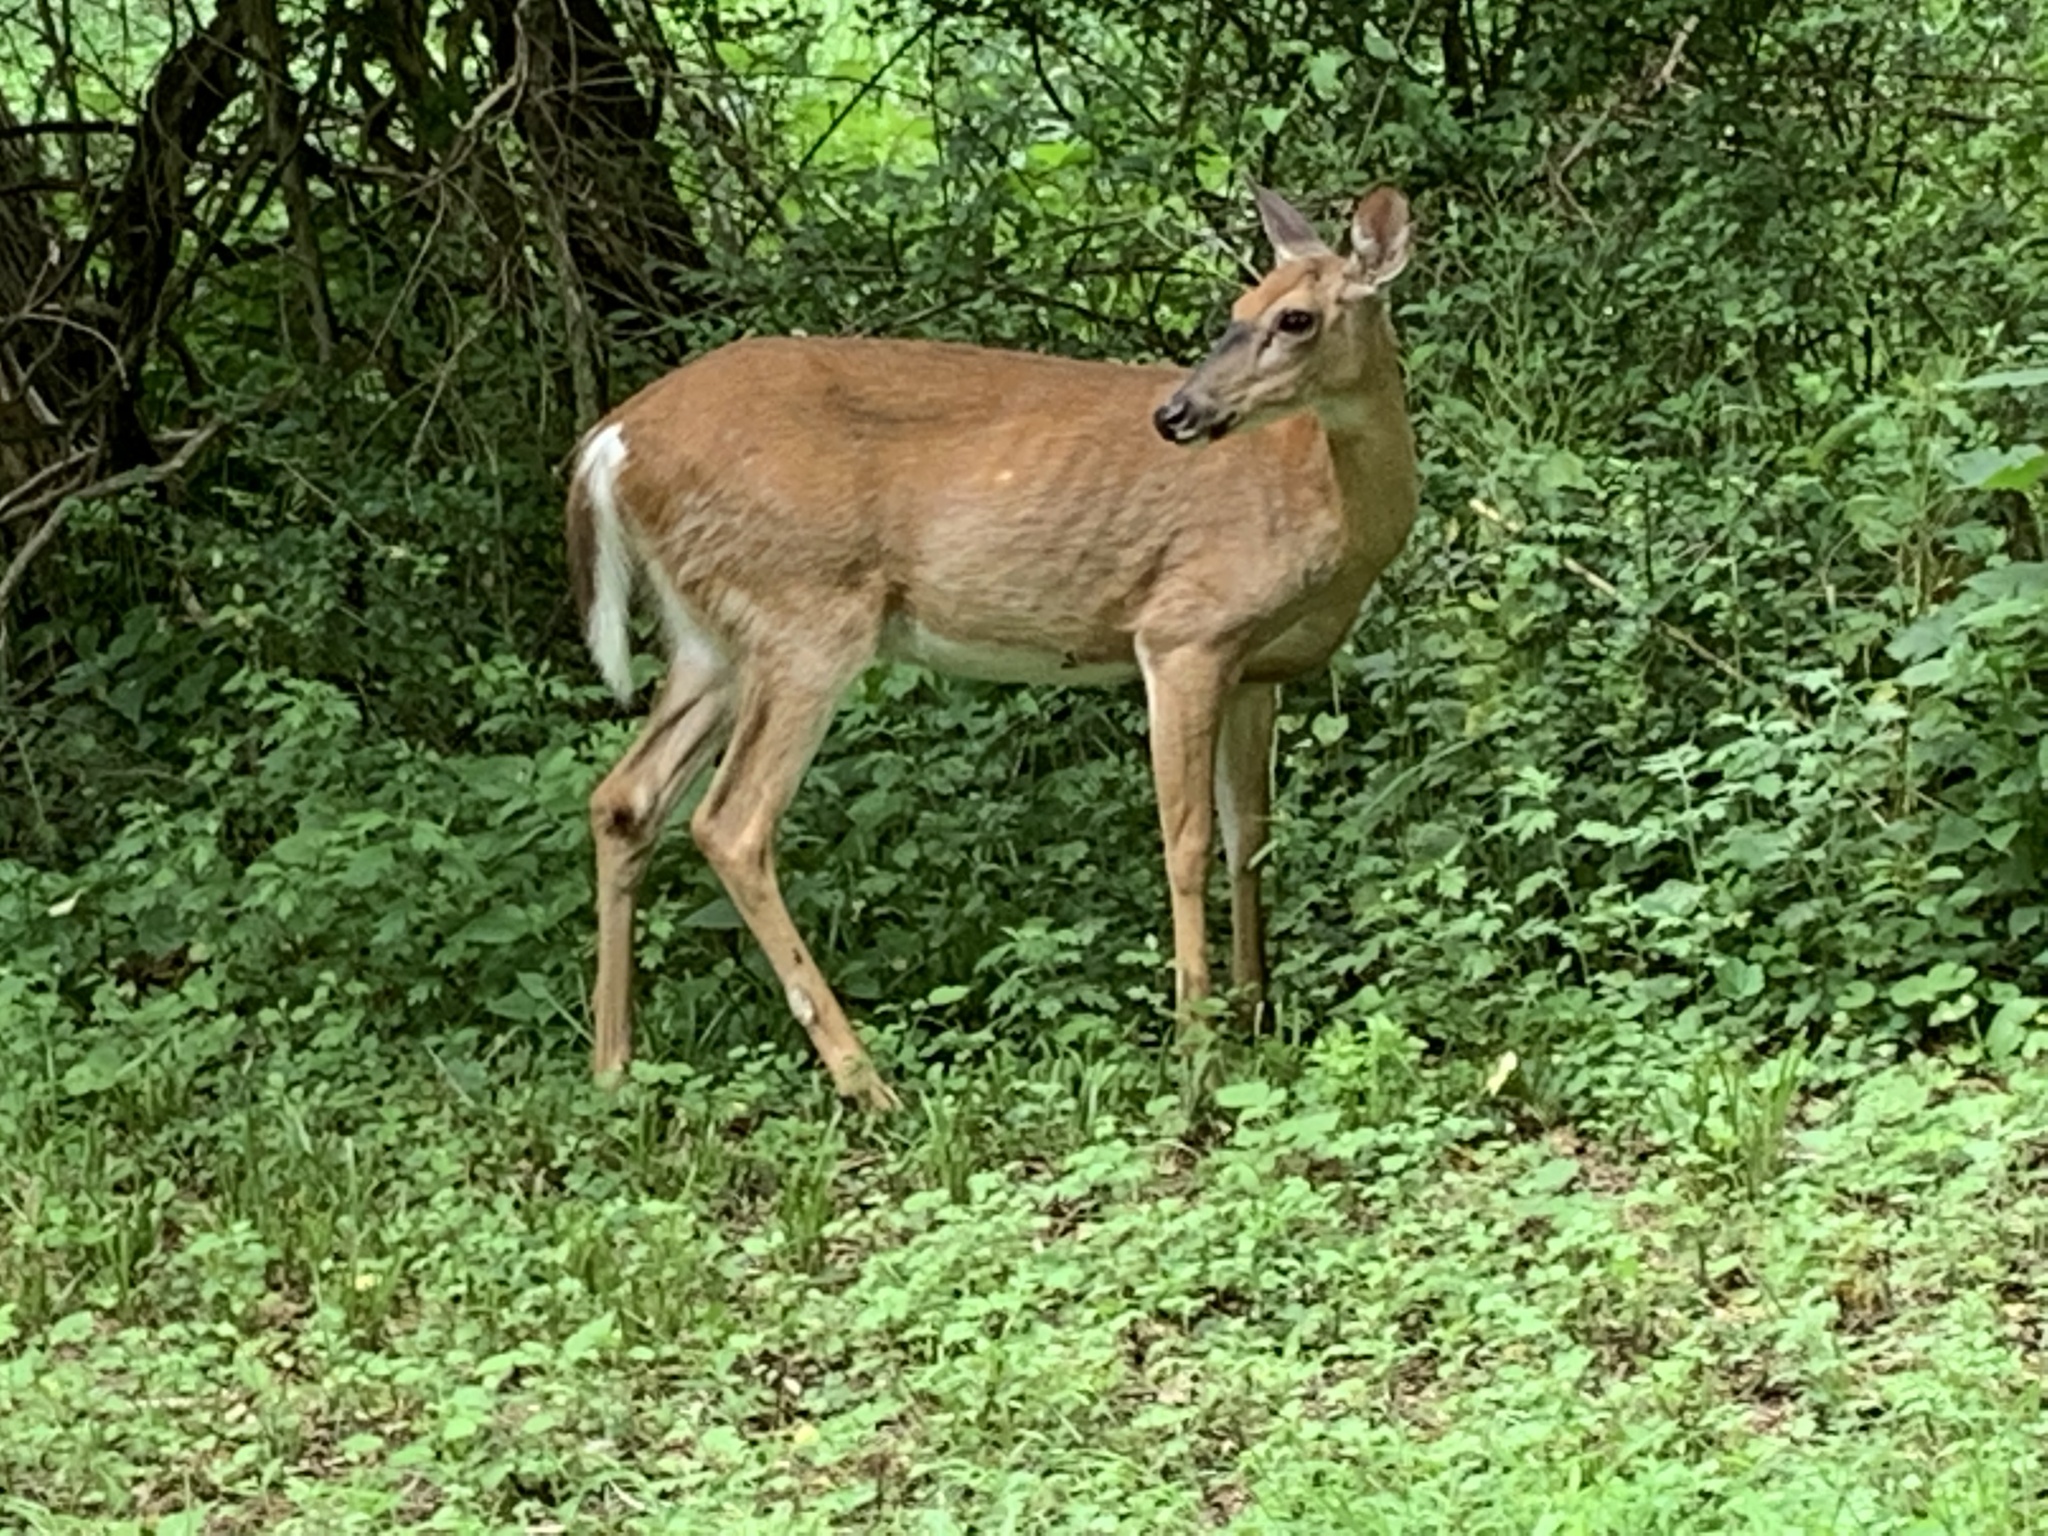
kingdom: Animalia
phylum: Chordata
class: Mammalia
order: Artiodactyla
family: Cervidae
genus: Odocoileus
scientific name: Odocoileus virginianus
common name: White-tailed deer
